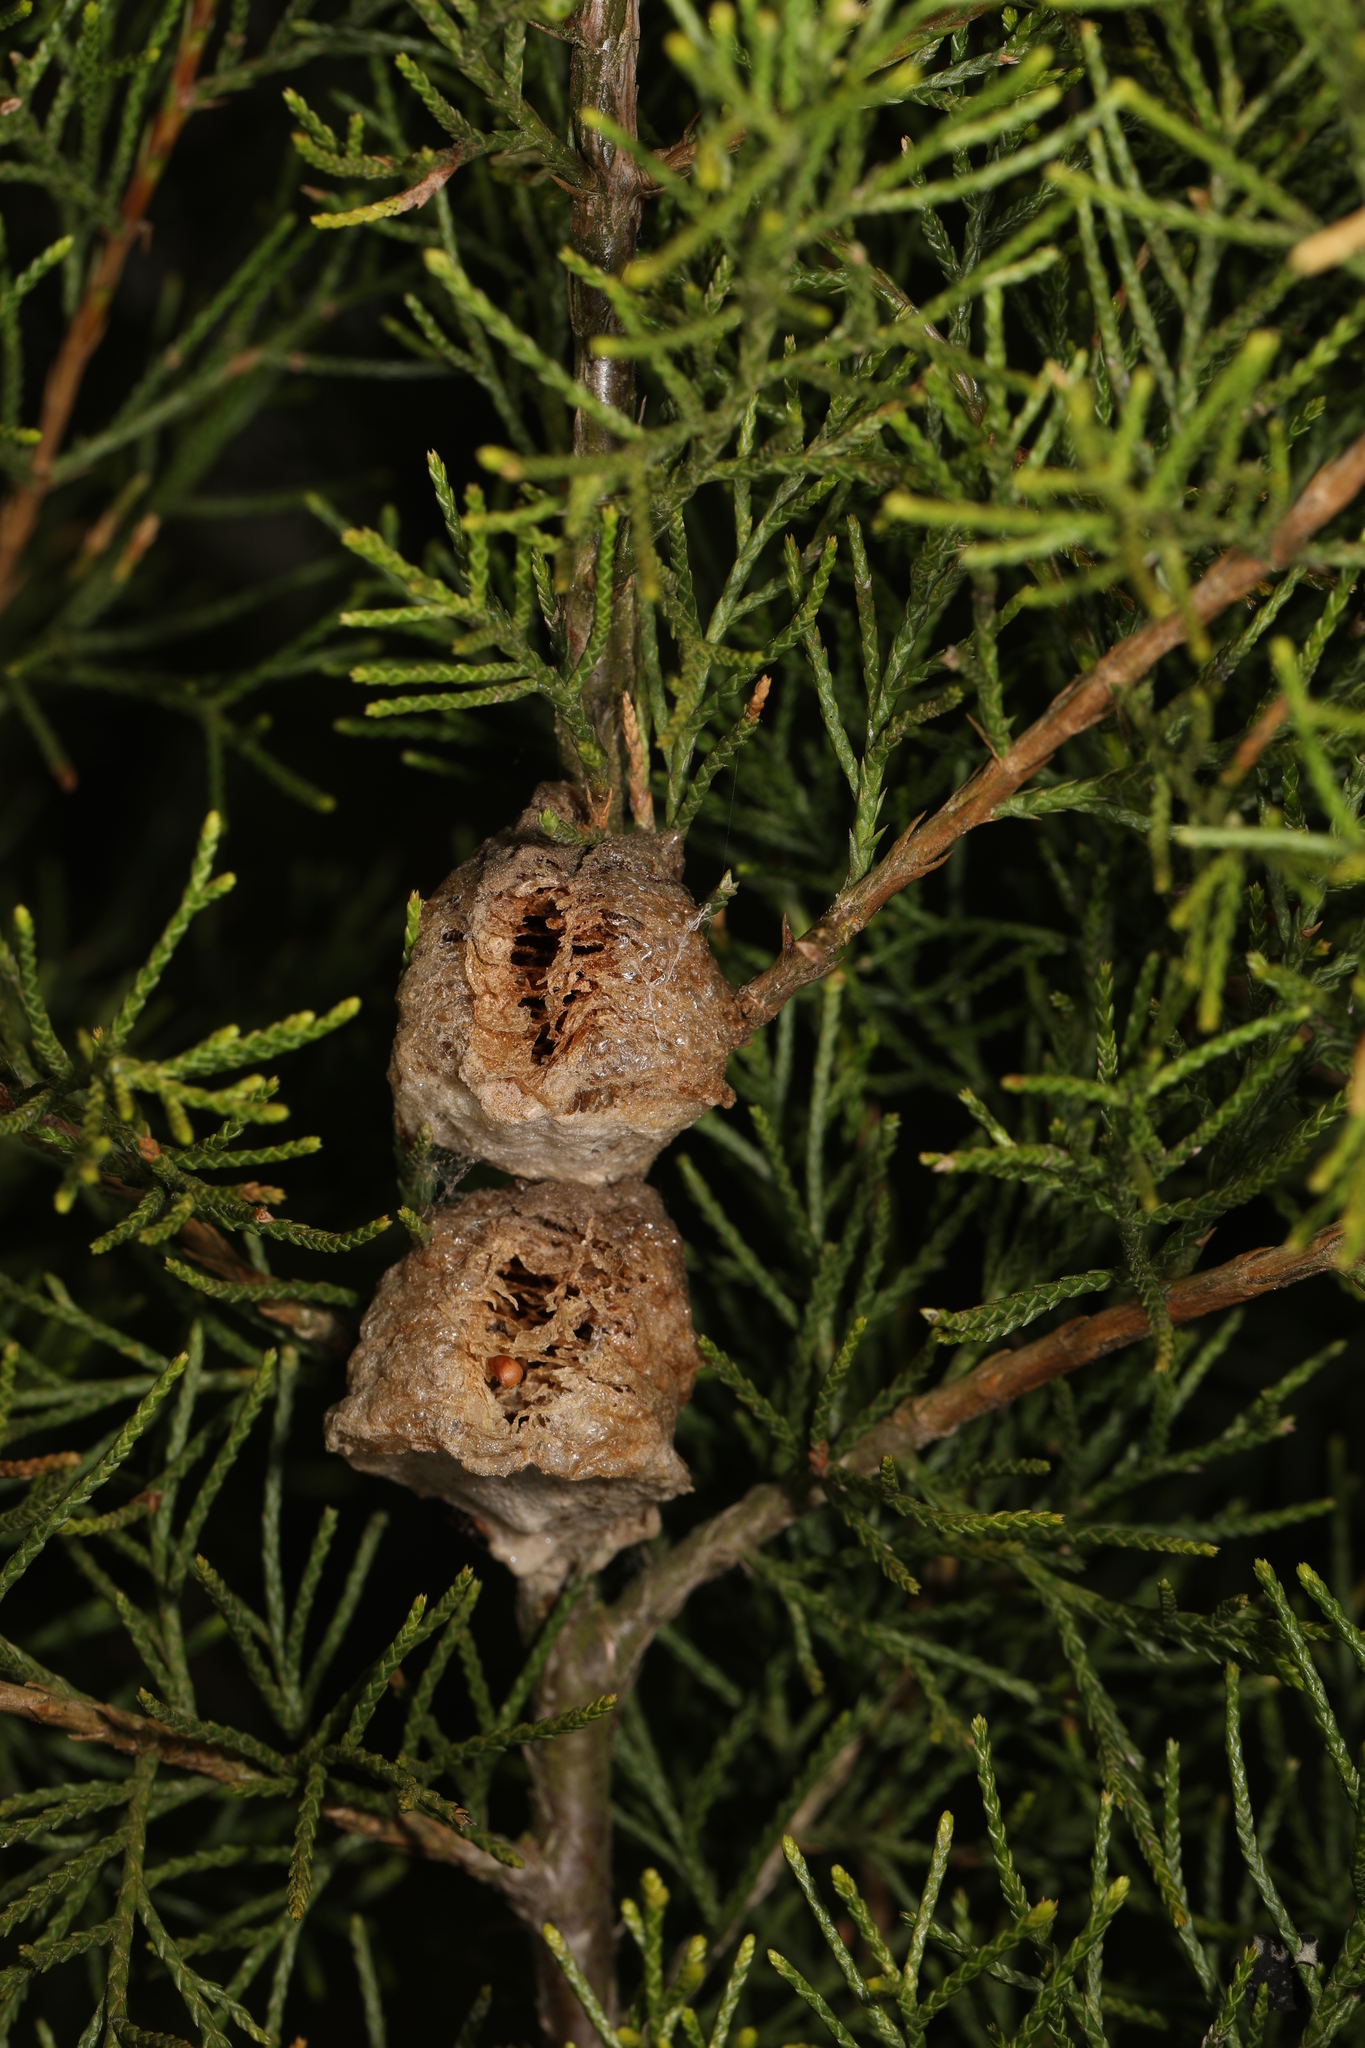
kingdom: Animalia
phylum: Arthropoda
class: Insecta
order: Mantodea
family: Mantidae
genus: Tenodera
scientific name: Tenodera sinensis
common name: Chinese mantis
